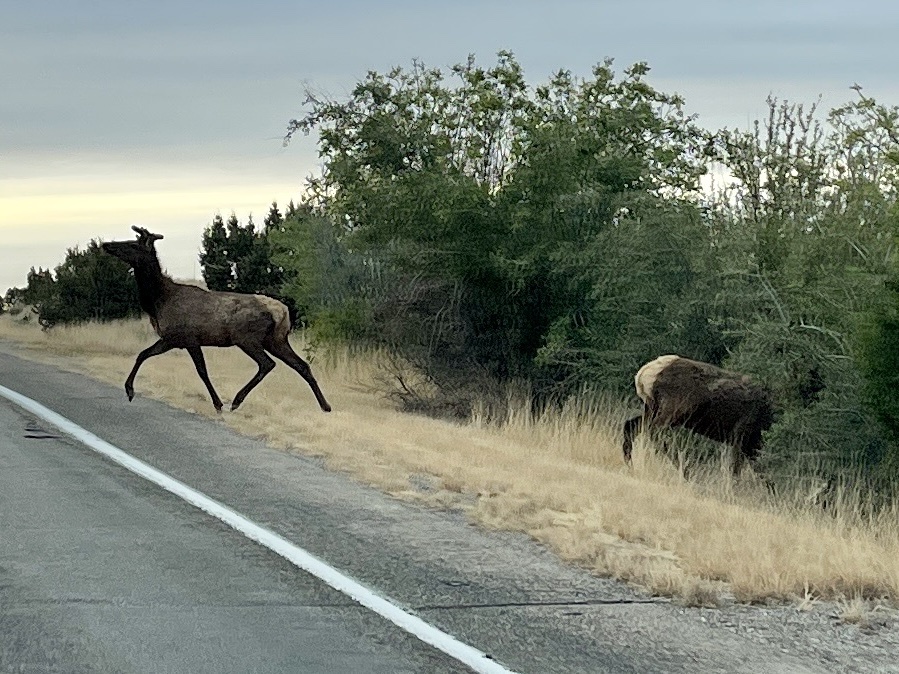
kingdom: Animalia
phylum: Chordata
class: Mammalia
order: Artiodactyla
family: Cervidae
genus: Cervus
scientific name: Cervus elaphus
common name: Red deer
